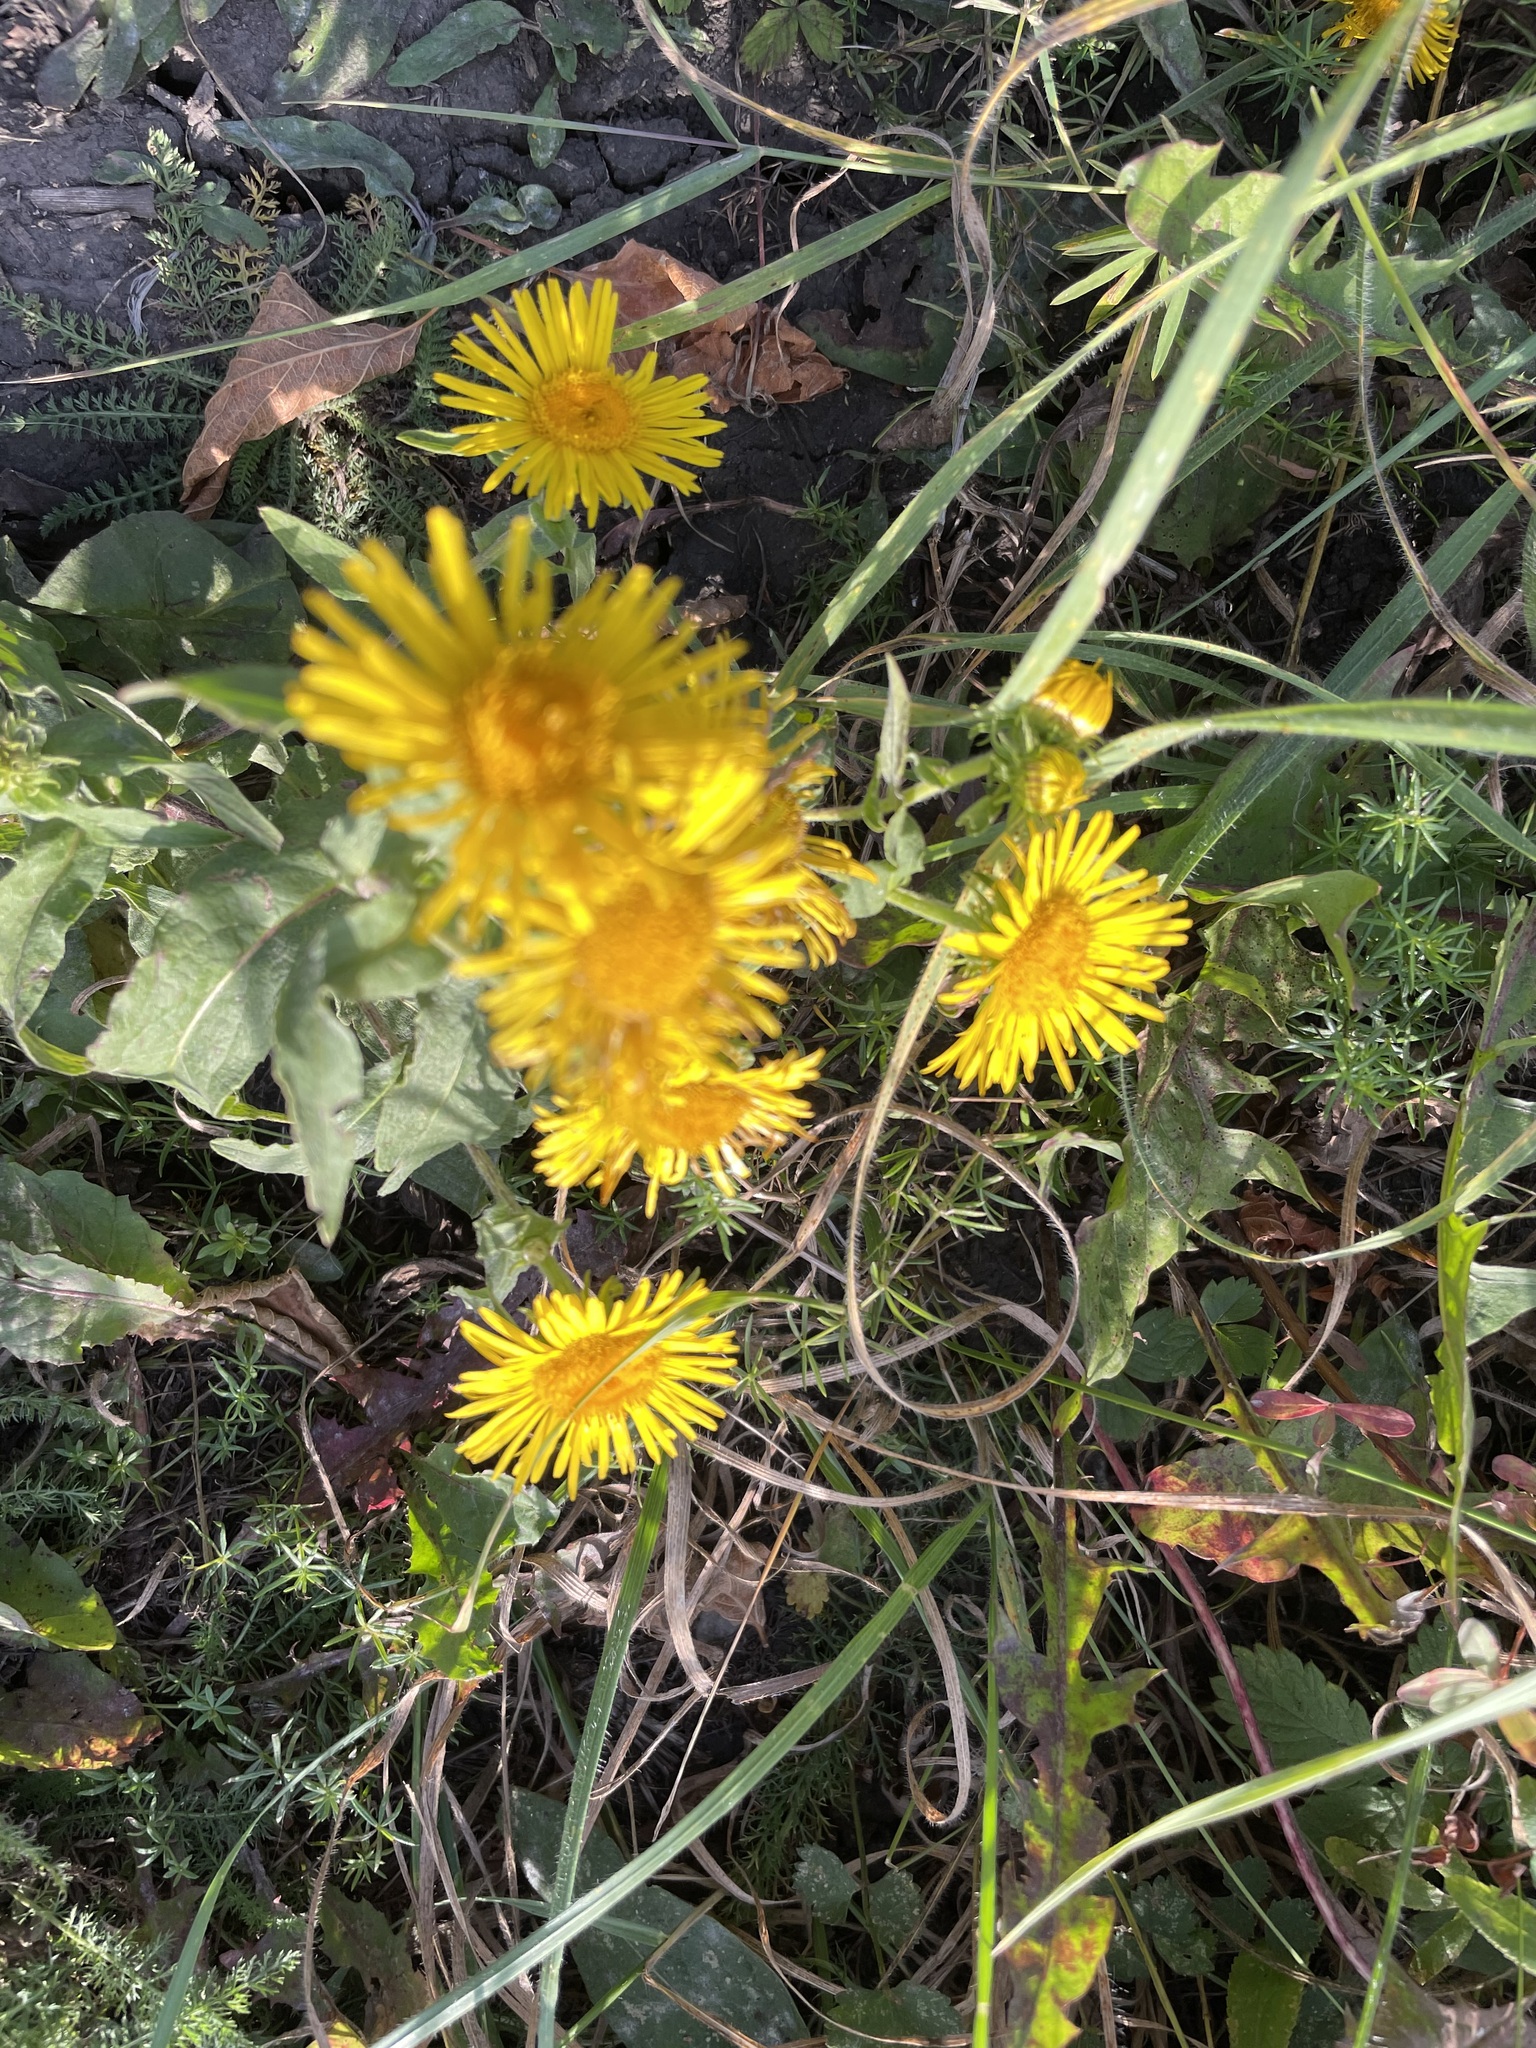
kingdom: Plantae
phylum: Tracheophyta
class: Magnoliopsida
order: Asterales
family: Asteraceae
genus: Pentanema
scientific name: Pentanema britannicum
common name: British elecampane
